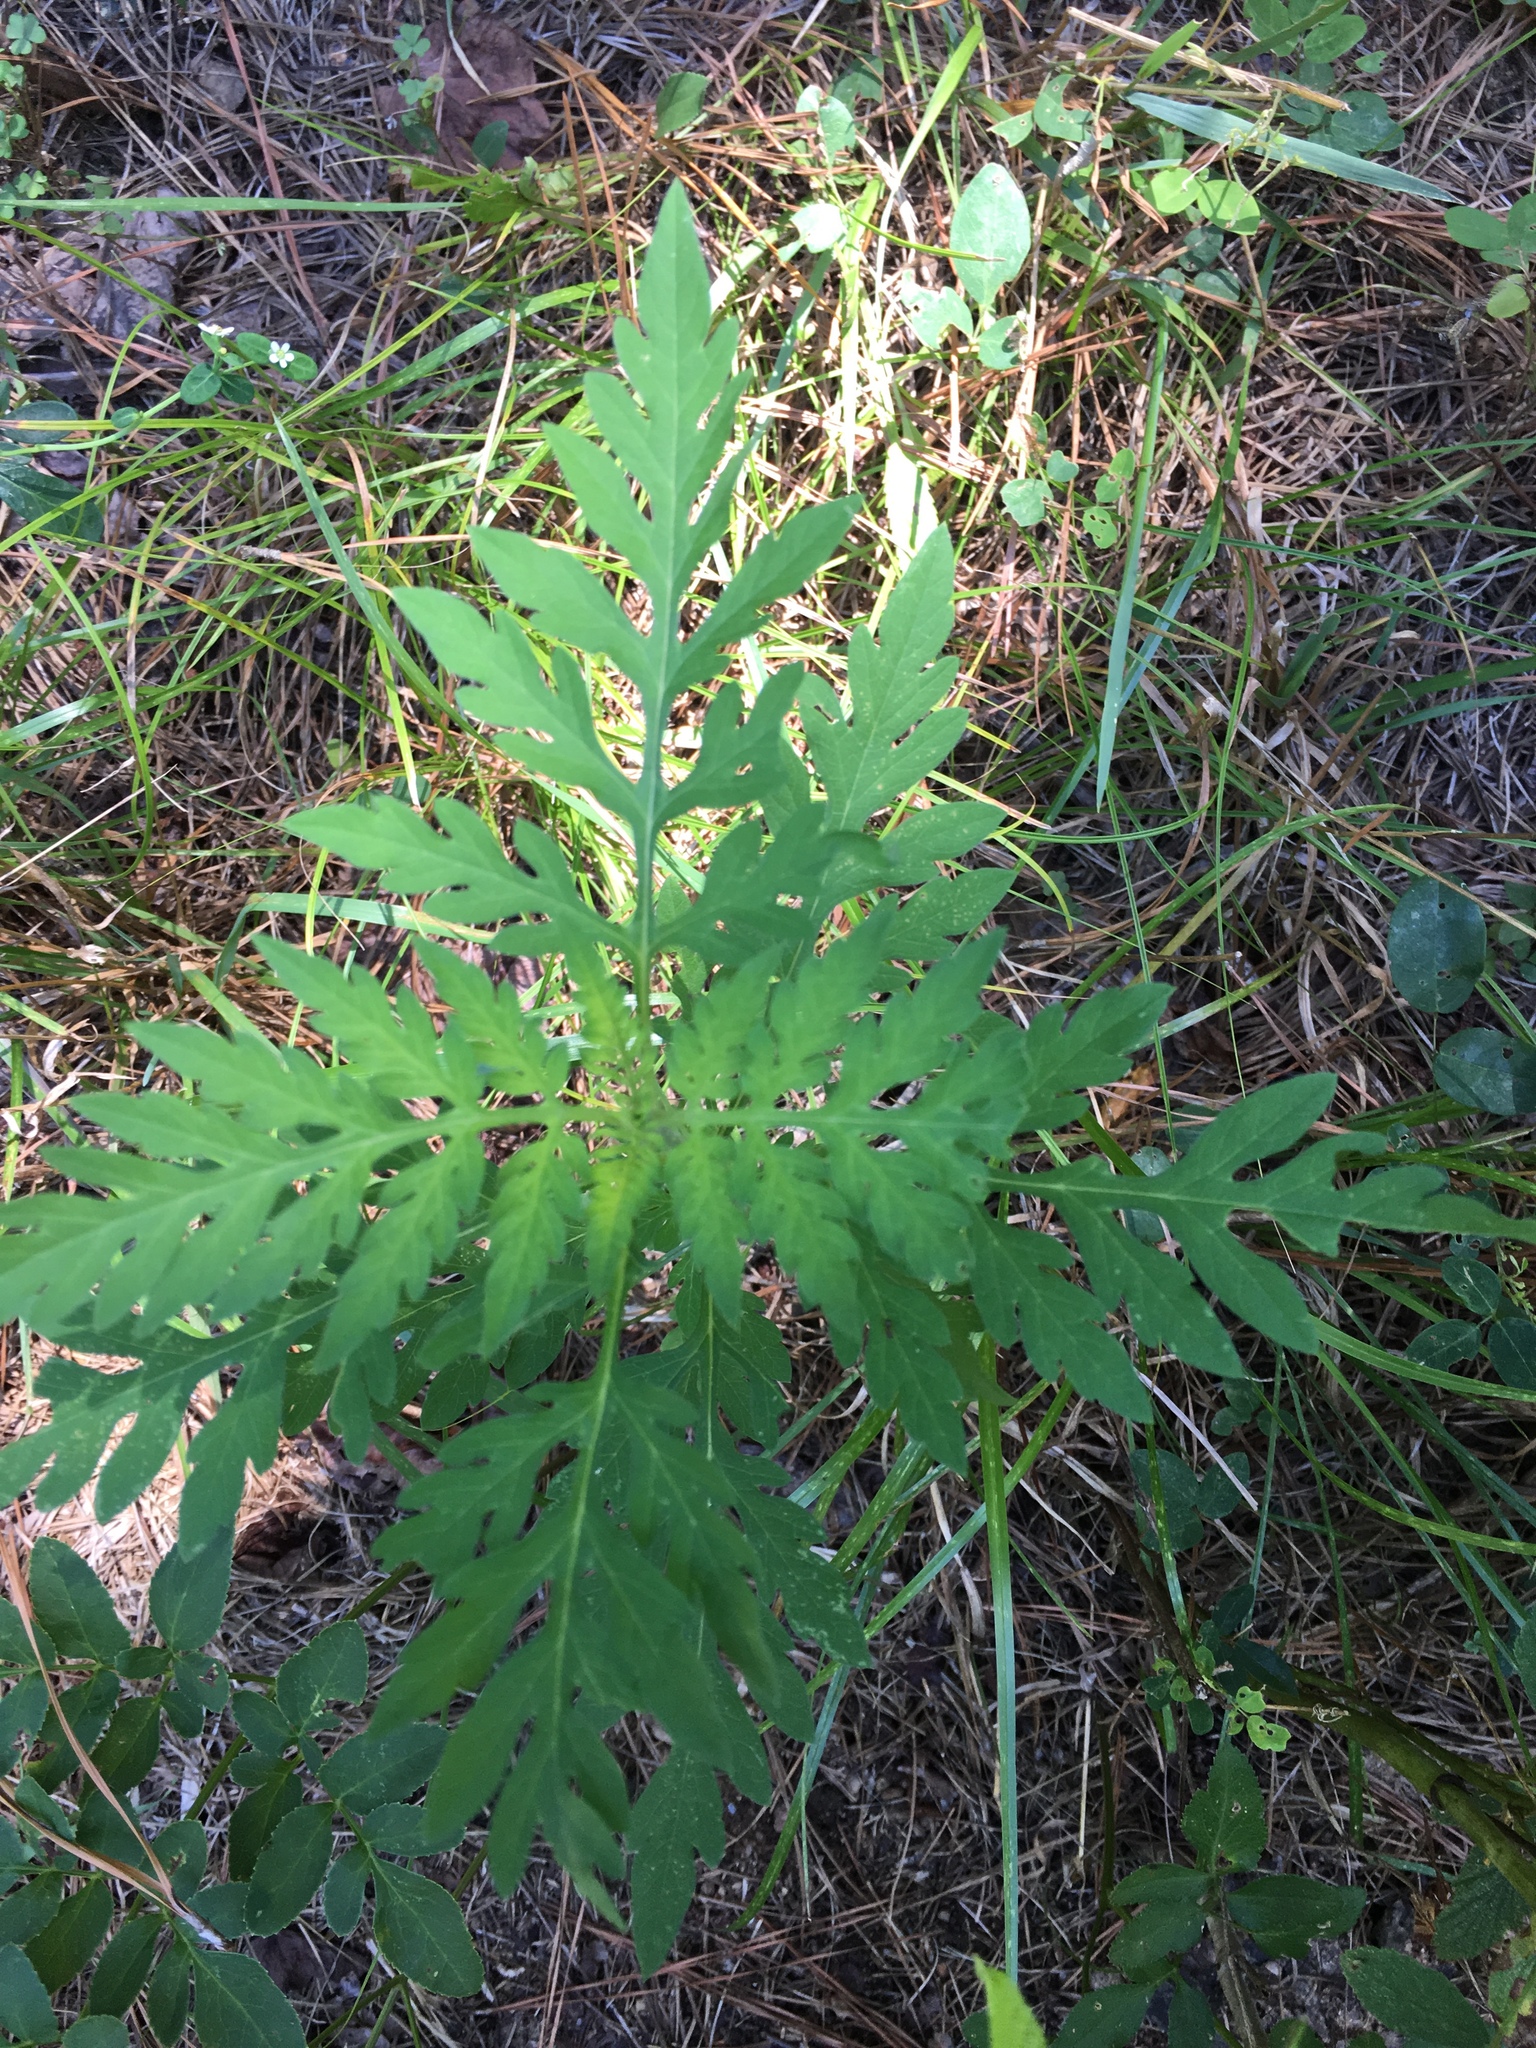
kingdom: Plantae
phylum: Tracheophyta
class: Magnoliopsida
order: Asterales
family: Asteraceae
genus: Ambrosia
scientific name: Ambrosia artemisiifolia
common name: Annual ragweed
